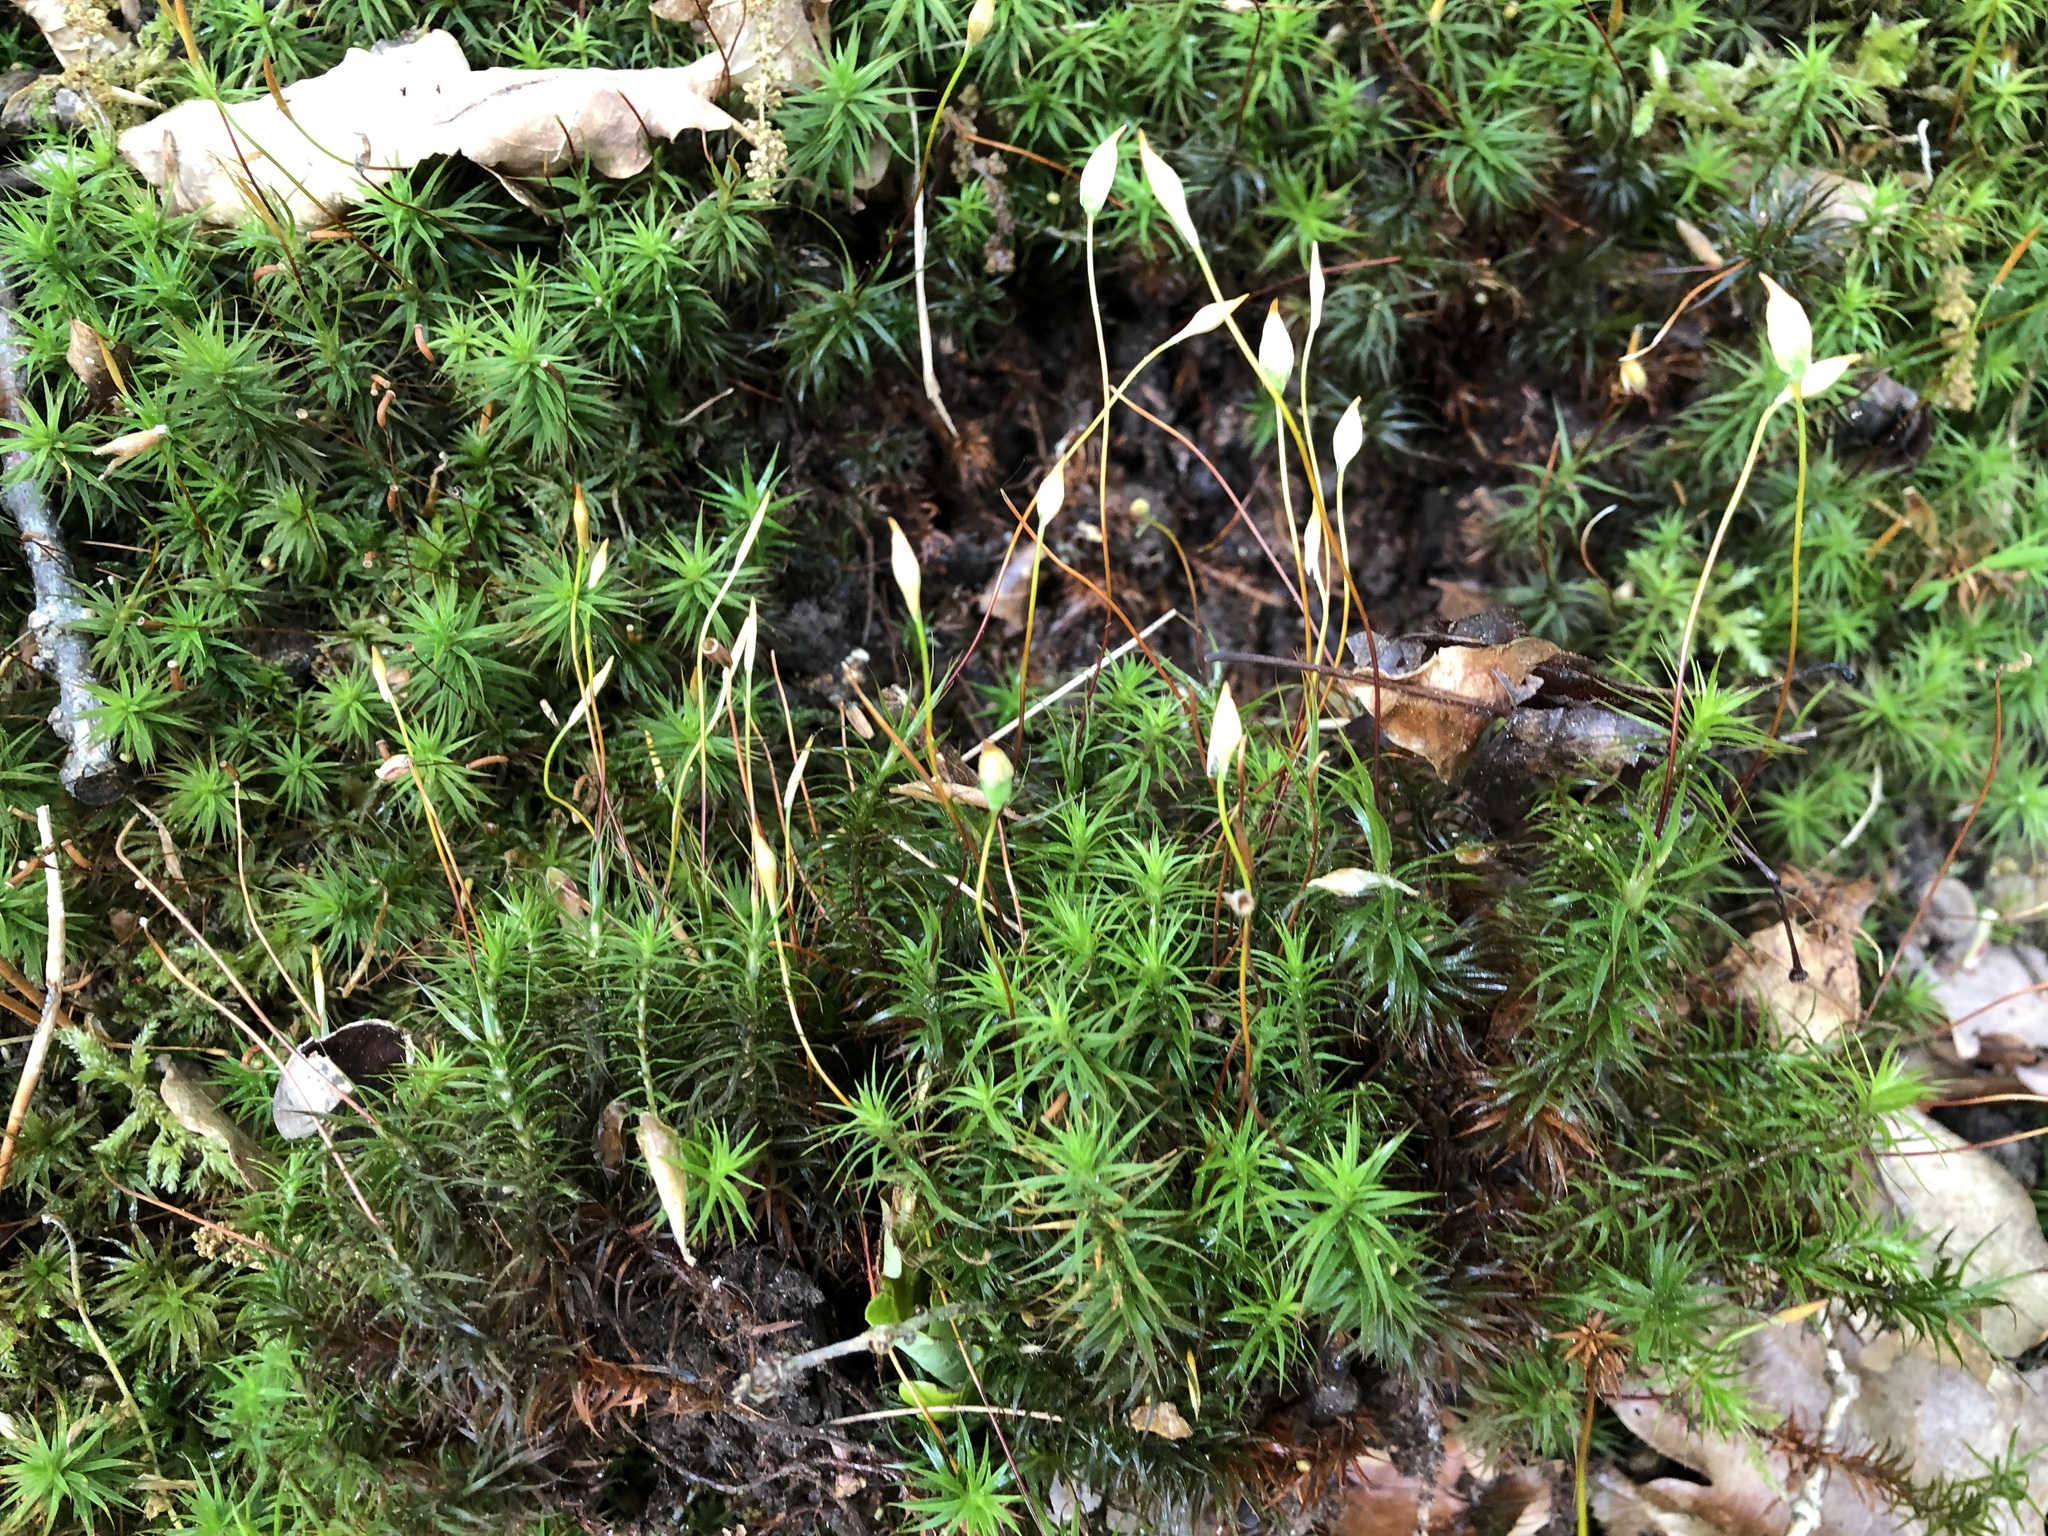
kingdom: Plantae
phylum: Bryophyta
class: Polytrichopsida
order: Polytrichales
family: Polytrichaceae
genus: Polytrichum
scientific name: Polytrichum formosum
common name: Bank haircap moss
